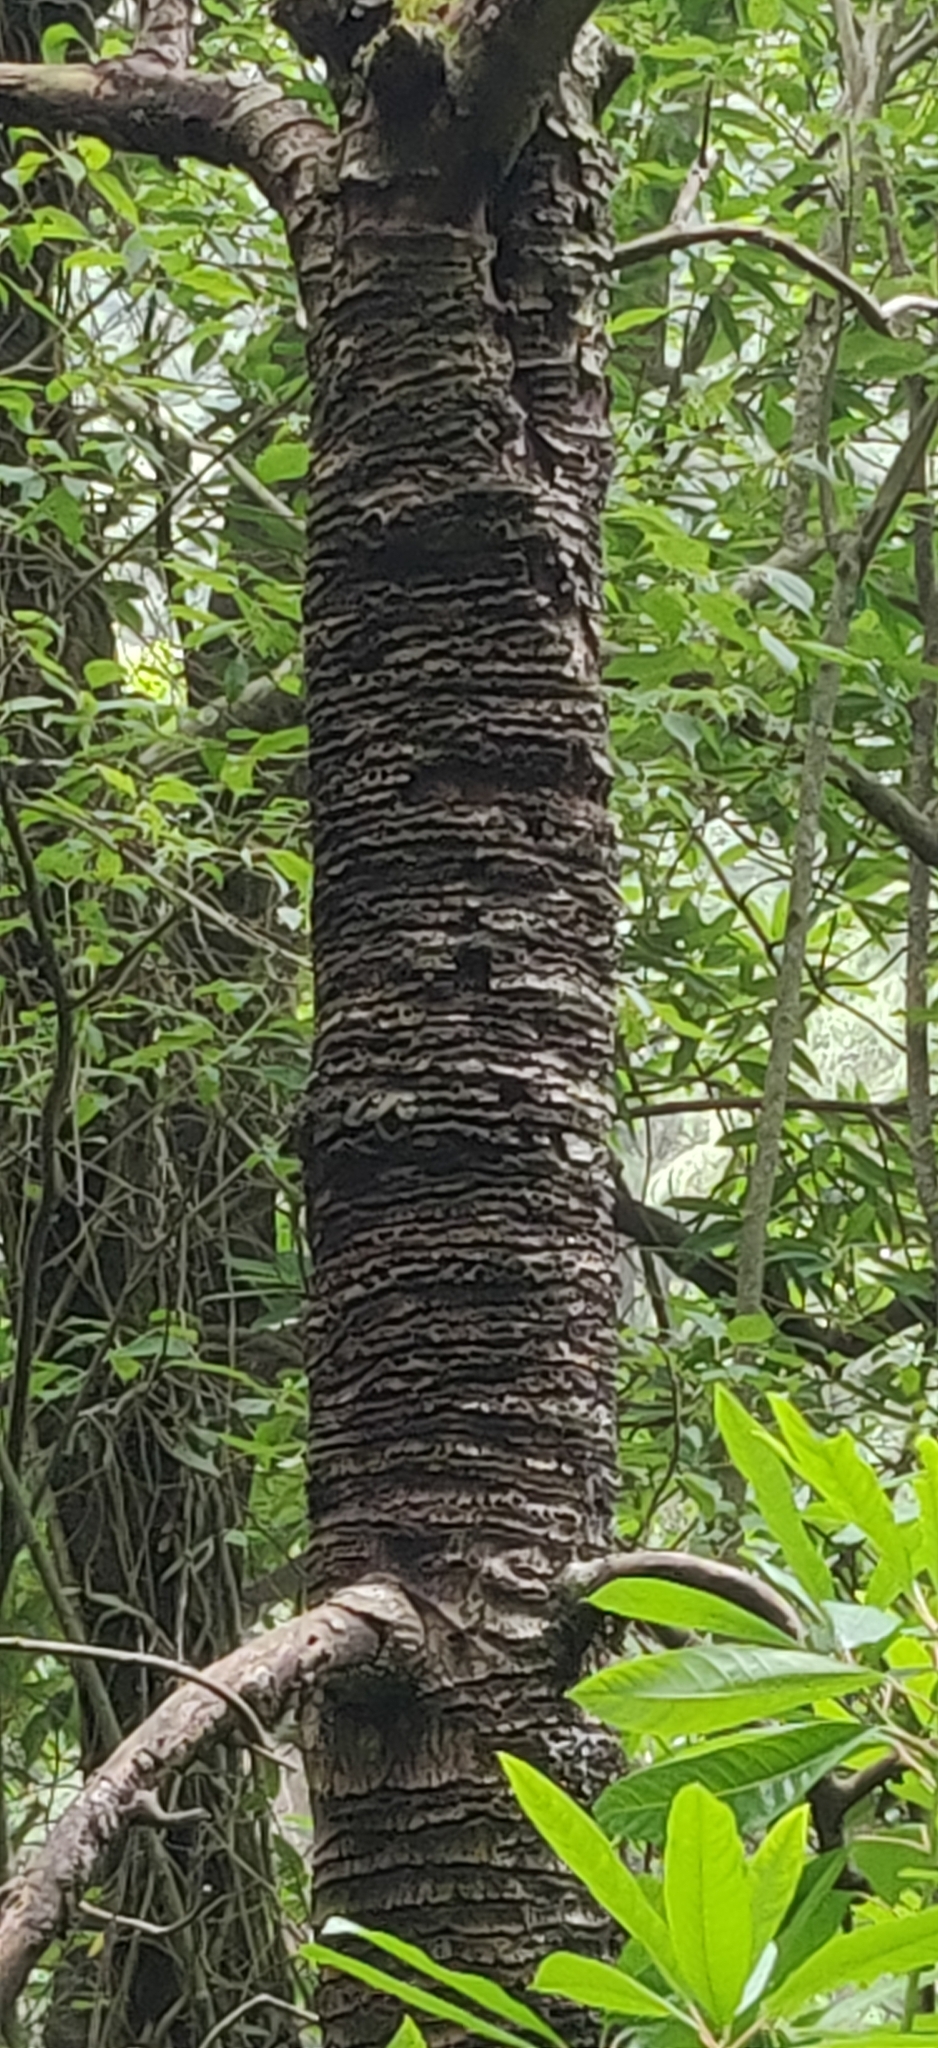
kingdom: Animalia
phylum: Chordata
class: Aves
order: Piciformes
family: Picidae
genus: Dendrocopos
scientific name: Dendrocopos hyperythrus
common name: Rufous-bellied woodpecker
